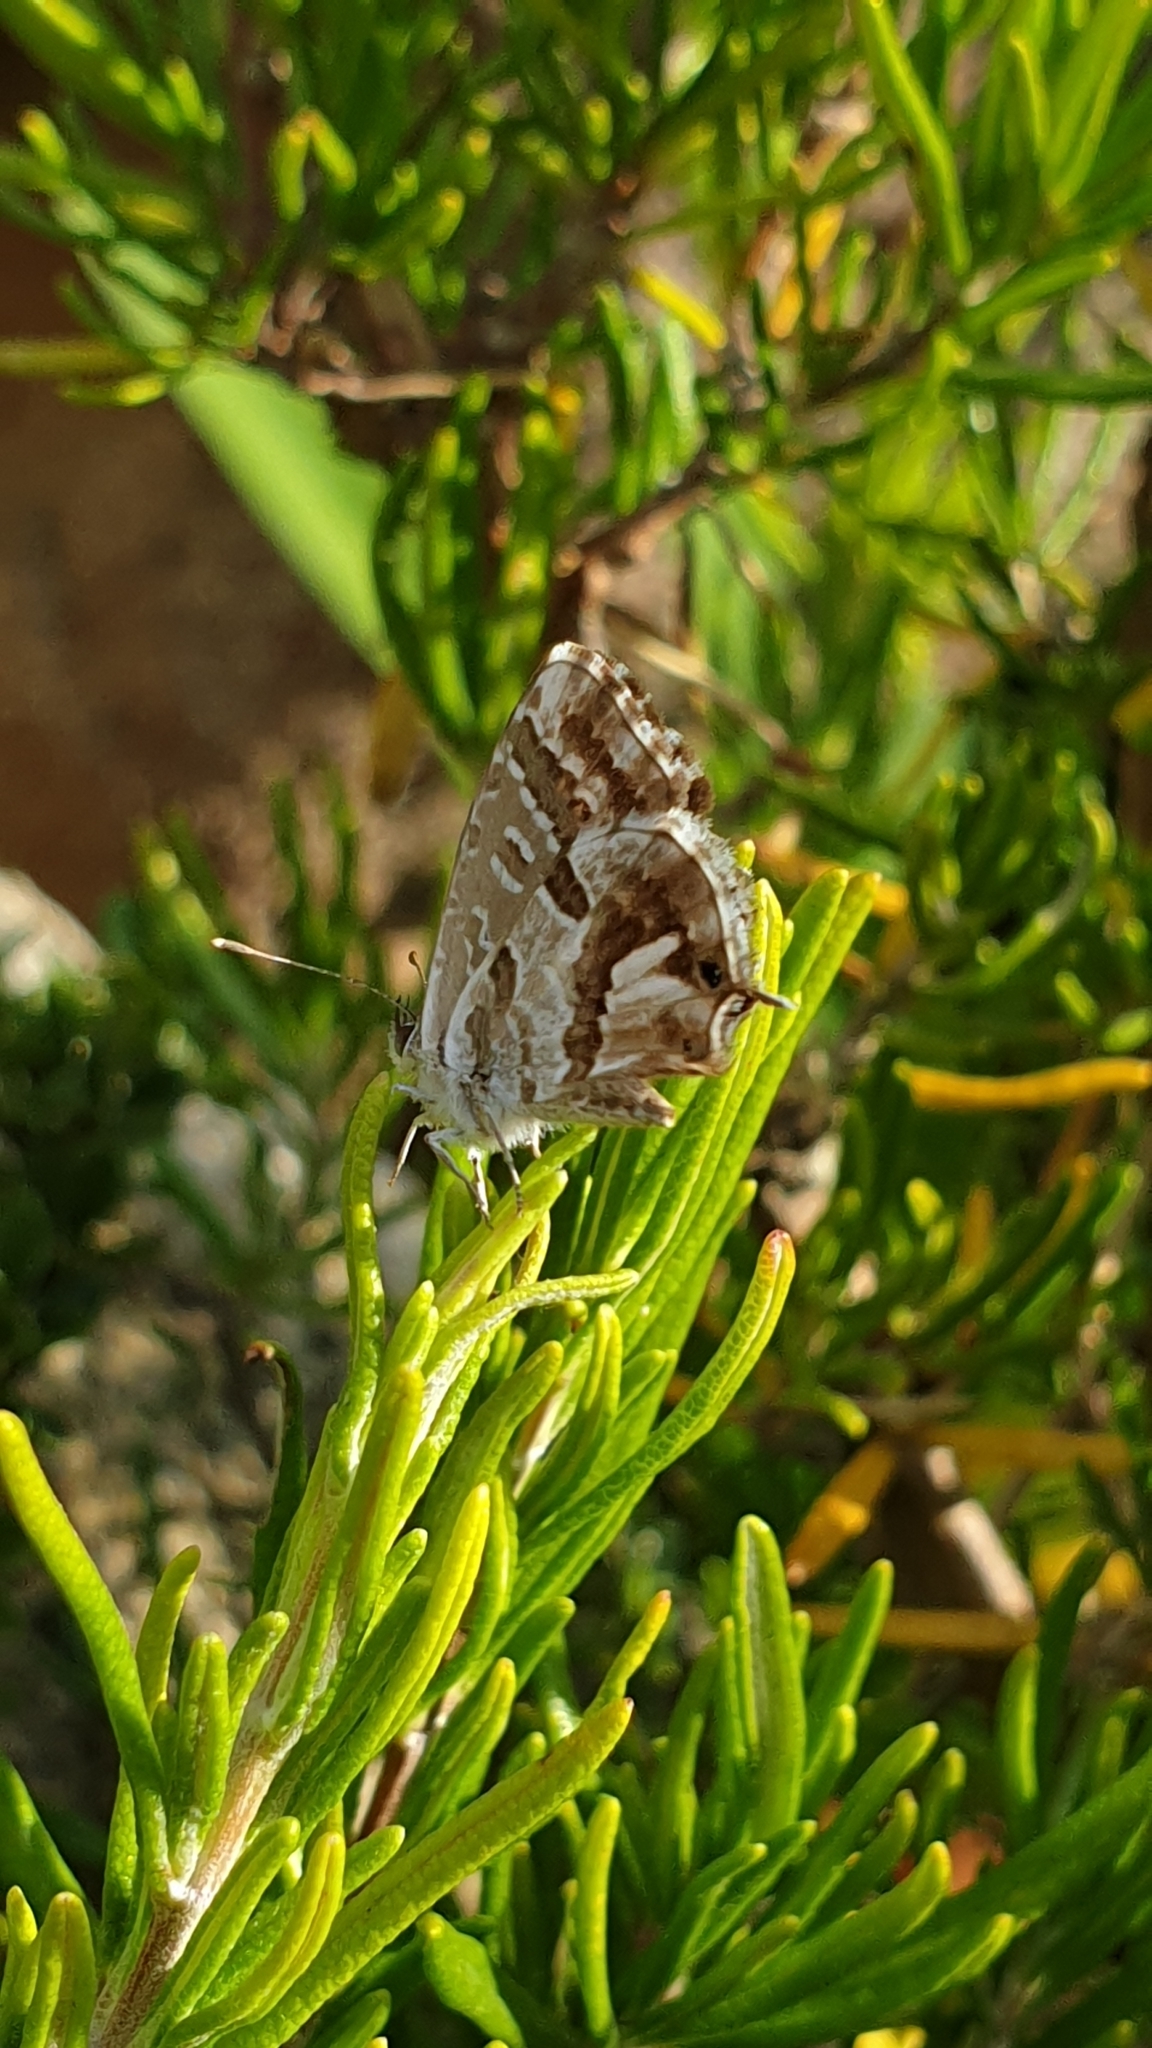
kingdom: Animalia
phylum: Arthropoda
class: Insecta
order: Lepidoptera
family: Lycaenidae
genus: Cacyreus
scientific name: Cacyreus marshalli
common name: Geranium bronze
